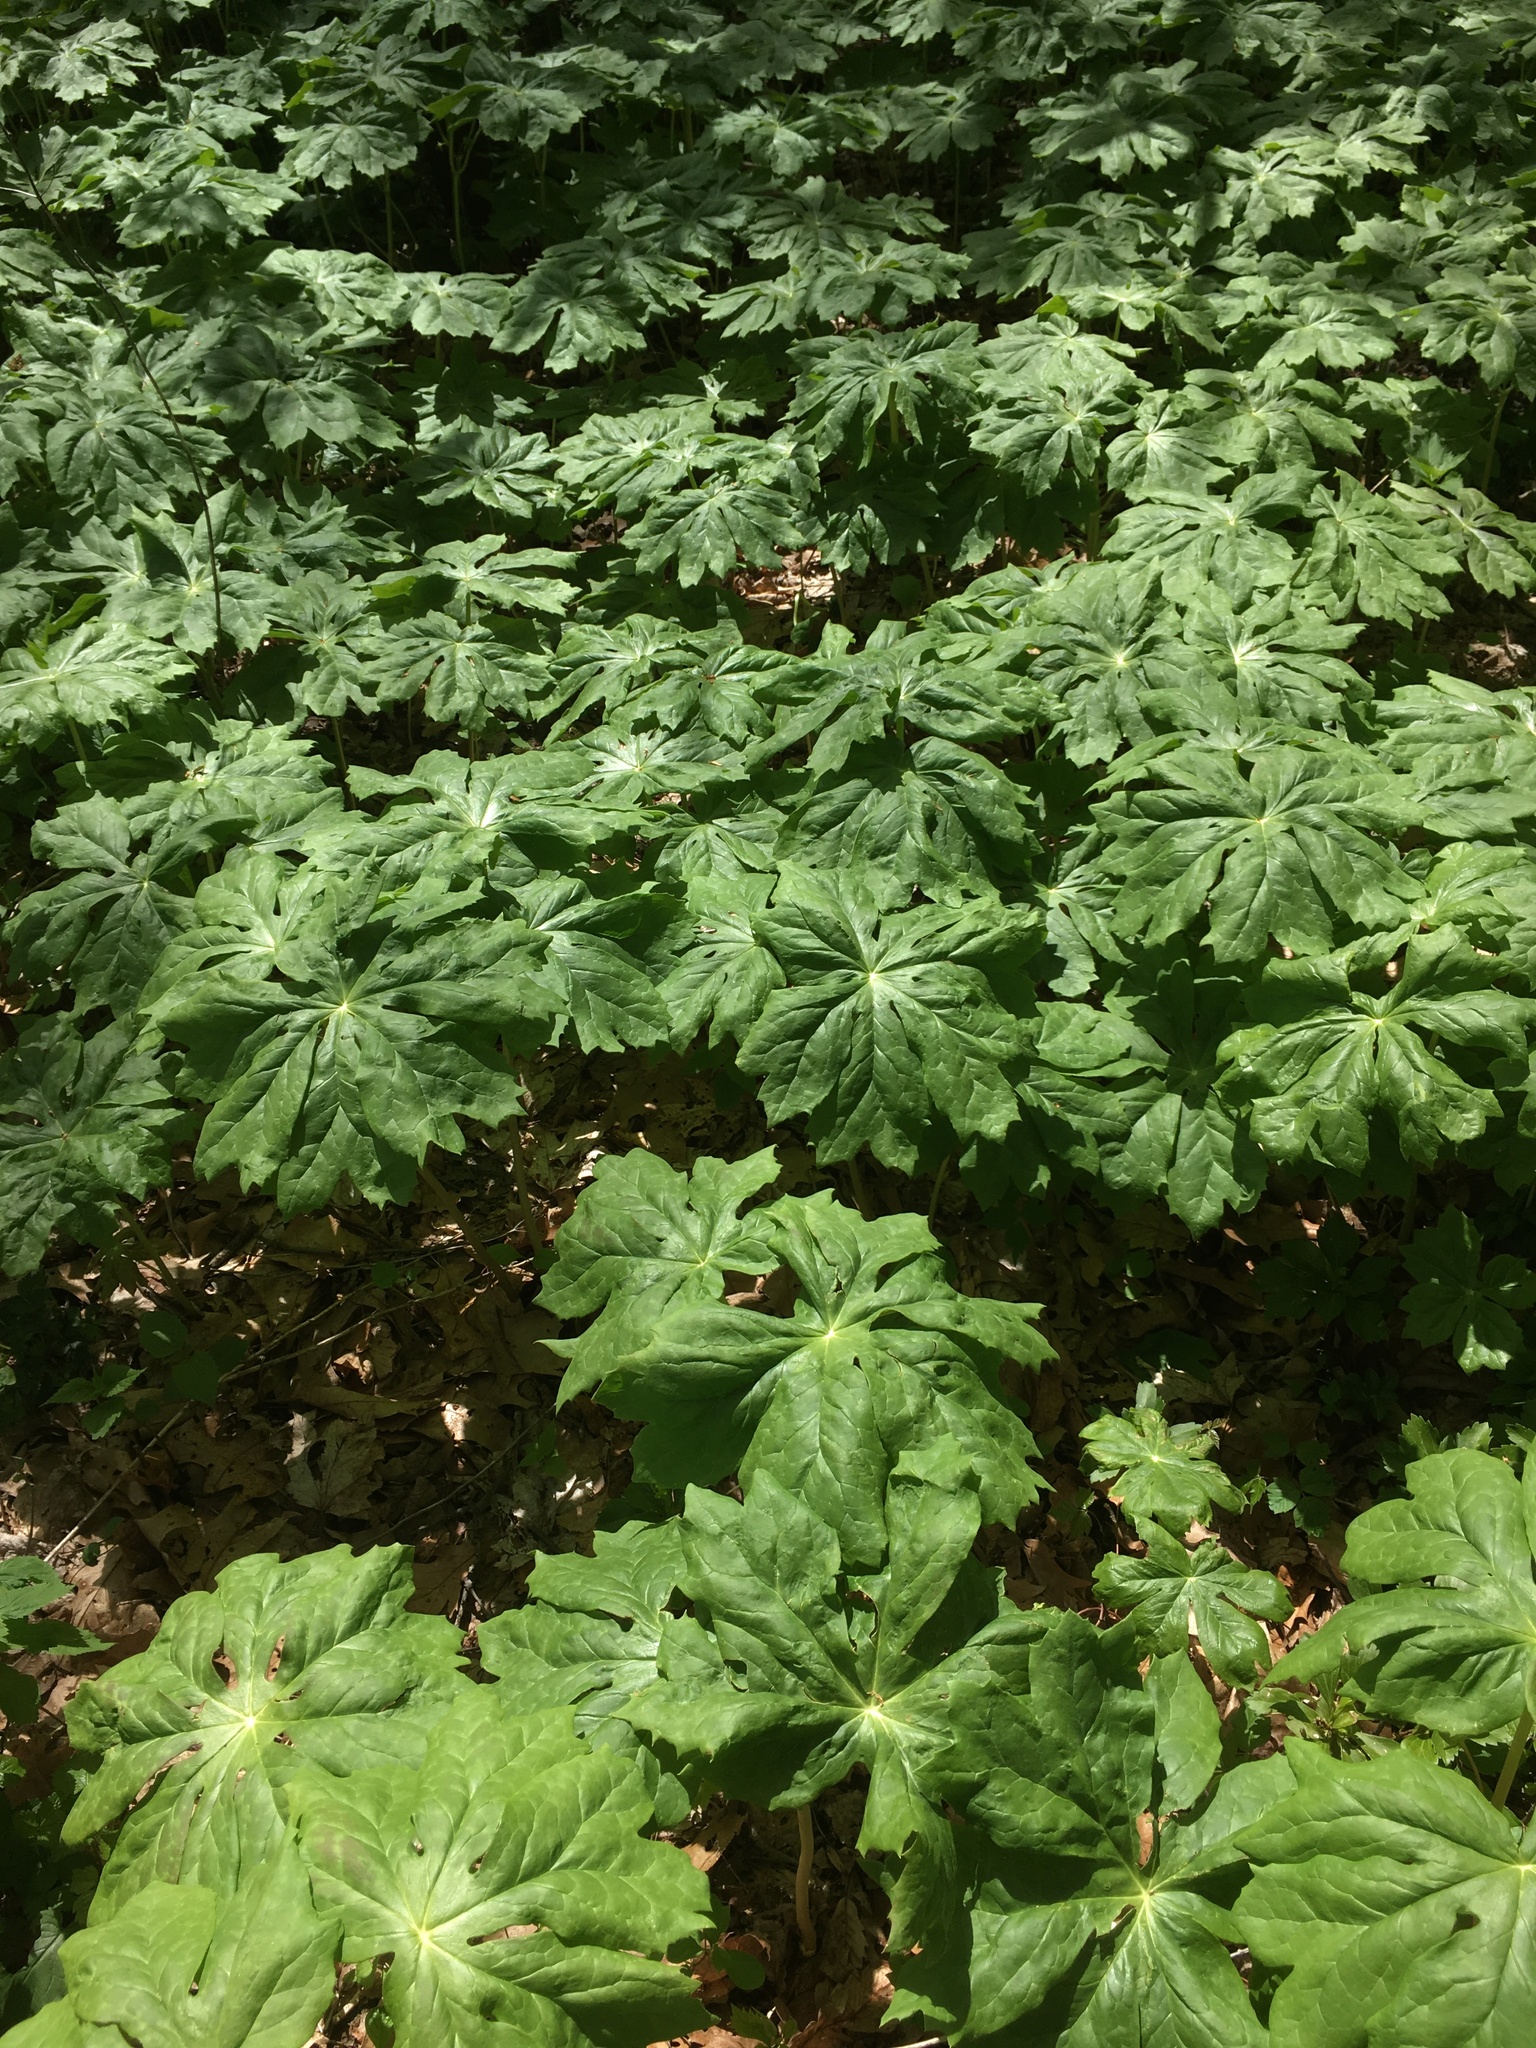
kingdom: Plantae
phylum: Tracheophyta
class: Magnoliopsida
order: Ranunculales
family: Berberidaceae
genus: Podophyllum
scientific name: Podophyllum peltatum
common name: Wild mandrake
